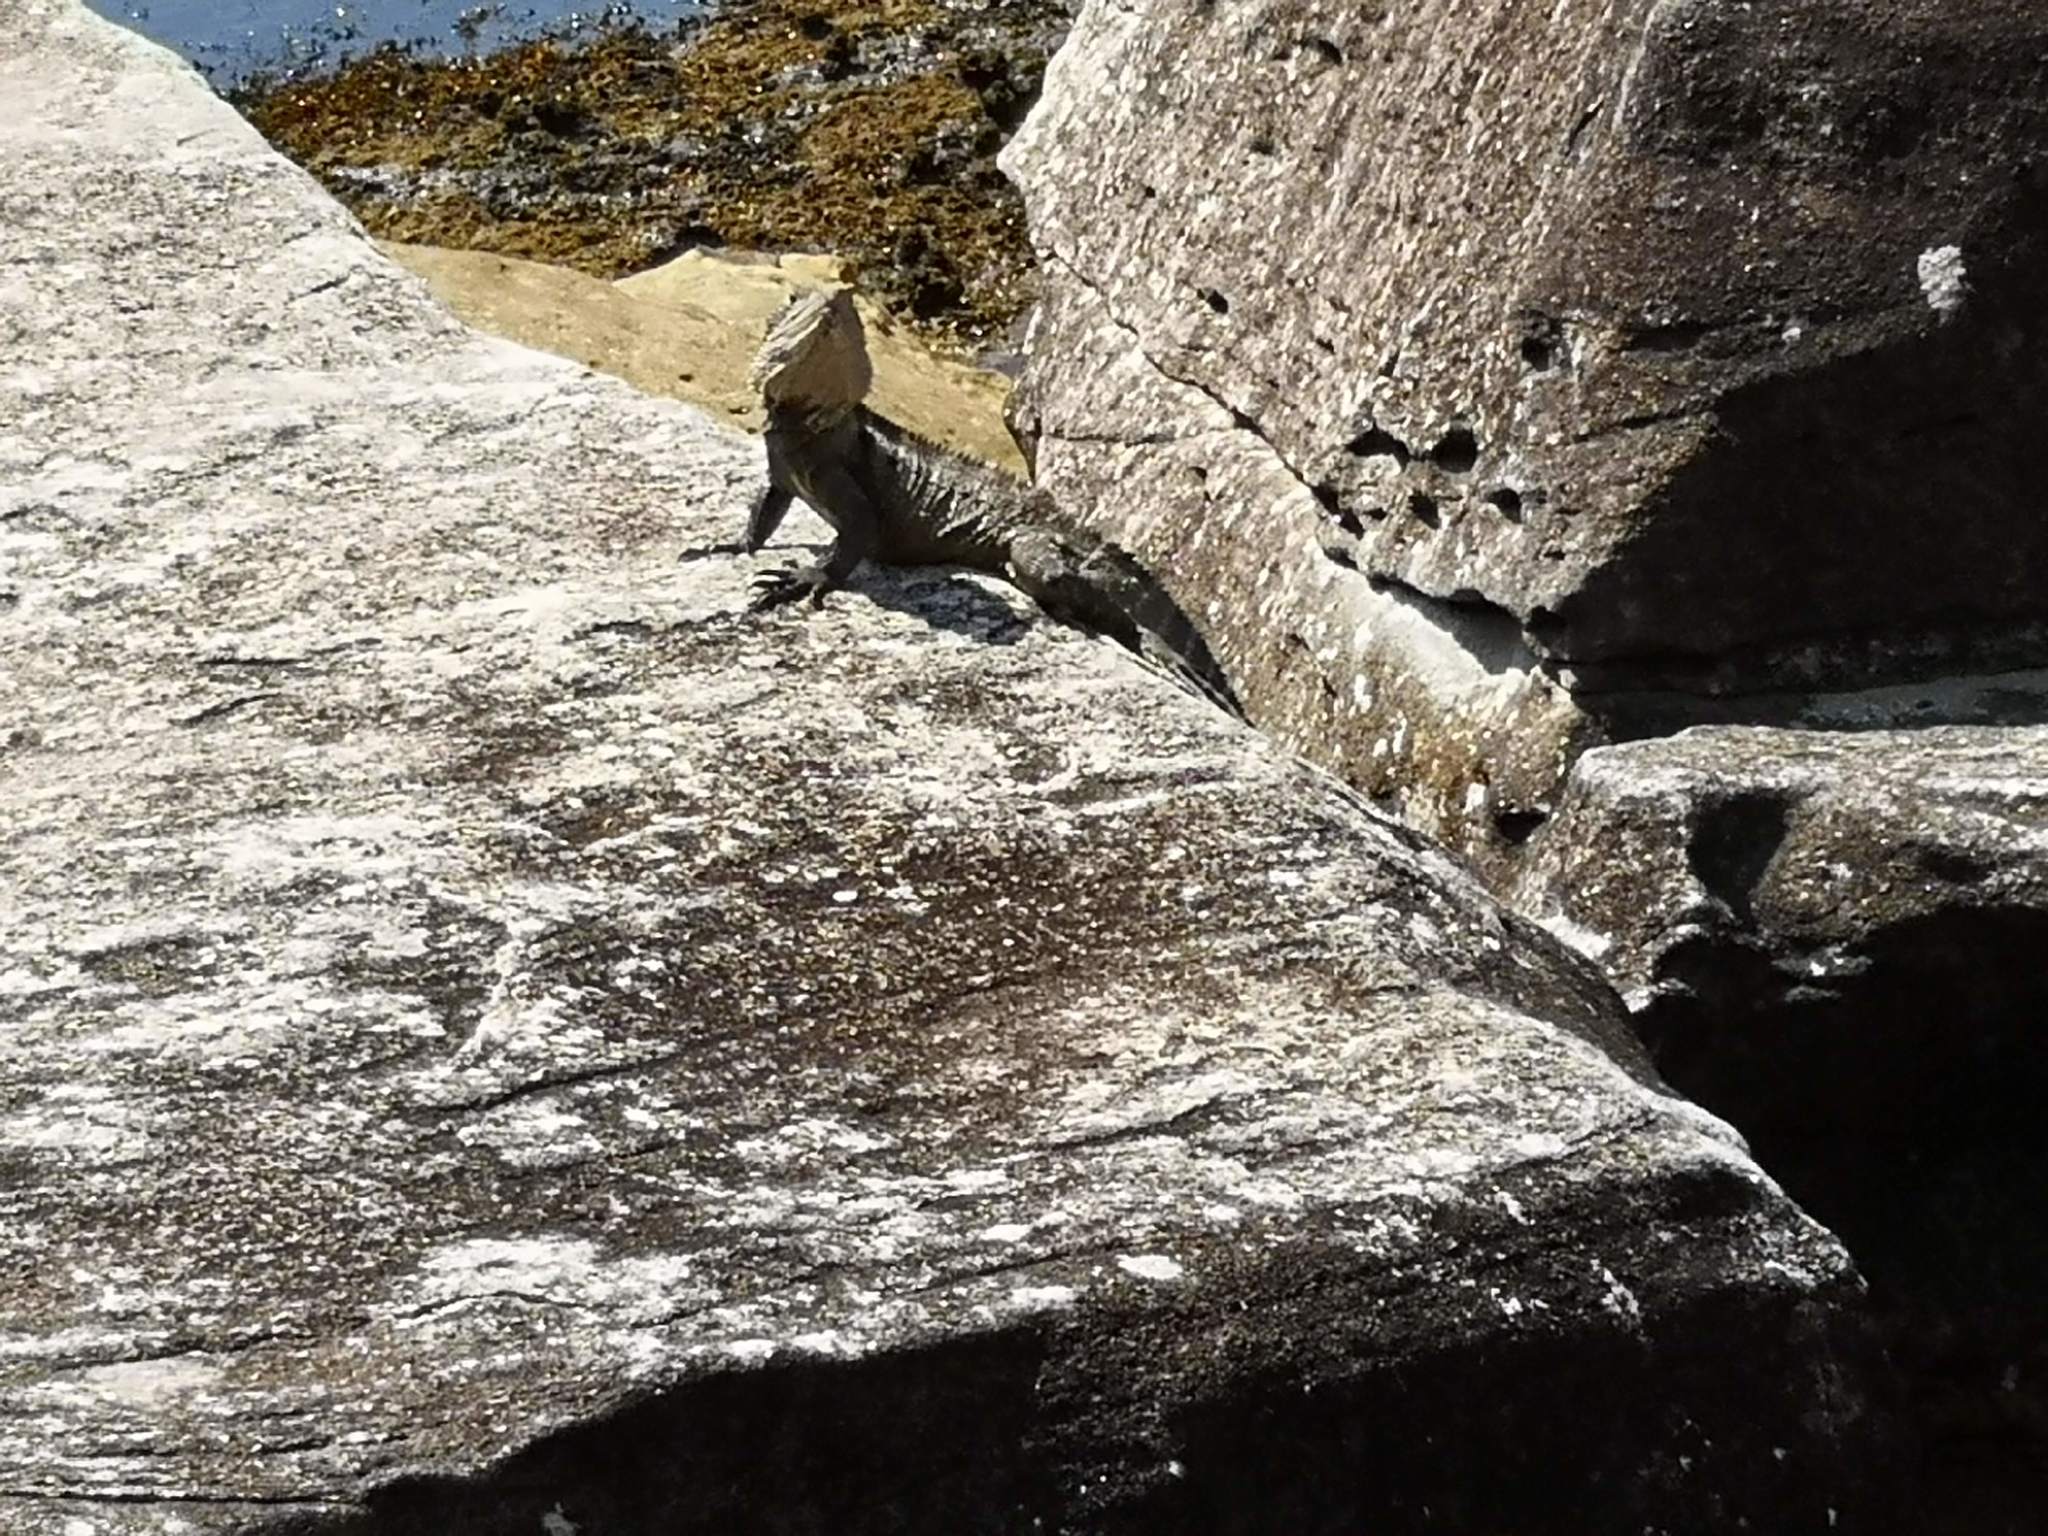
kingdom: Animalia
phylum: Chordata
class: Squamata
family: Agamidae
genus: Intellagama
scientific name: Intellagama lesueurii
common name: Eastern water dragon
